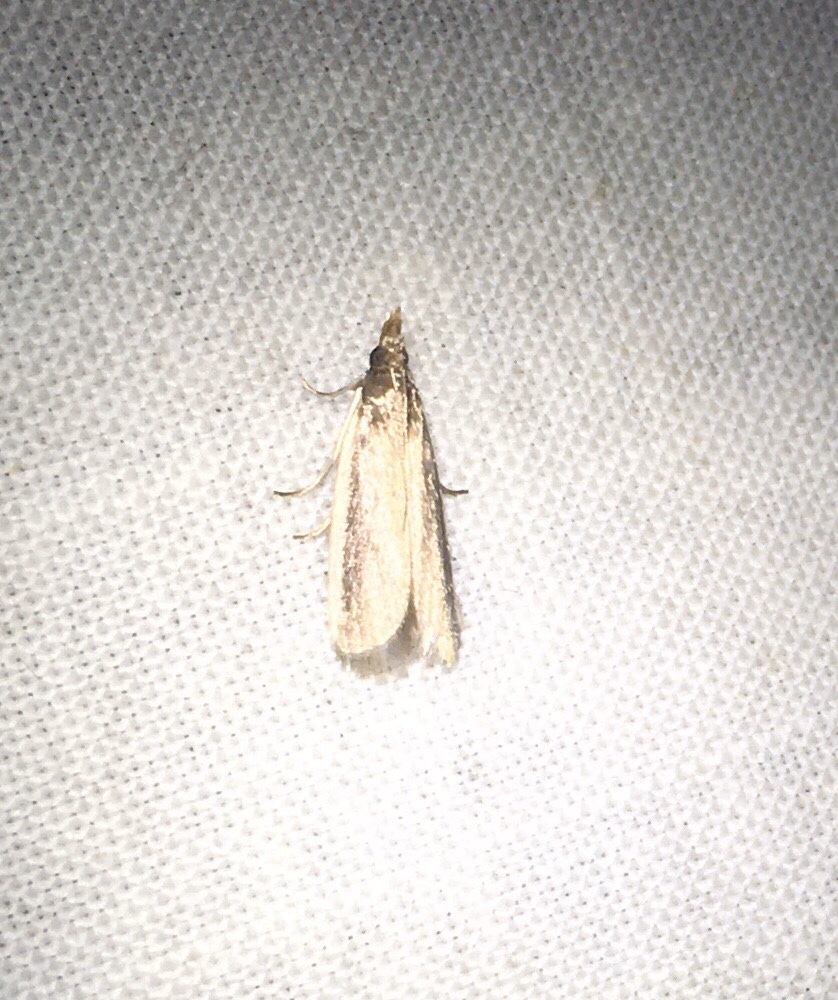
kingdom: Animalia
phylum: Arthropoda
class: Insecta
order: Lepidoptera
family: Pyralidae
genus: Homosassa
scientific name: Homosassa ella
